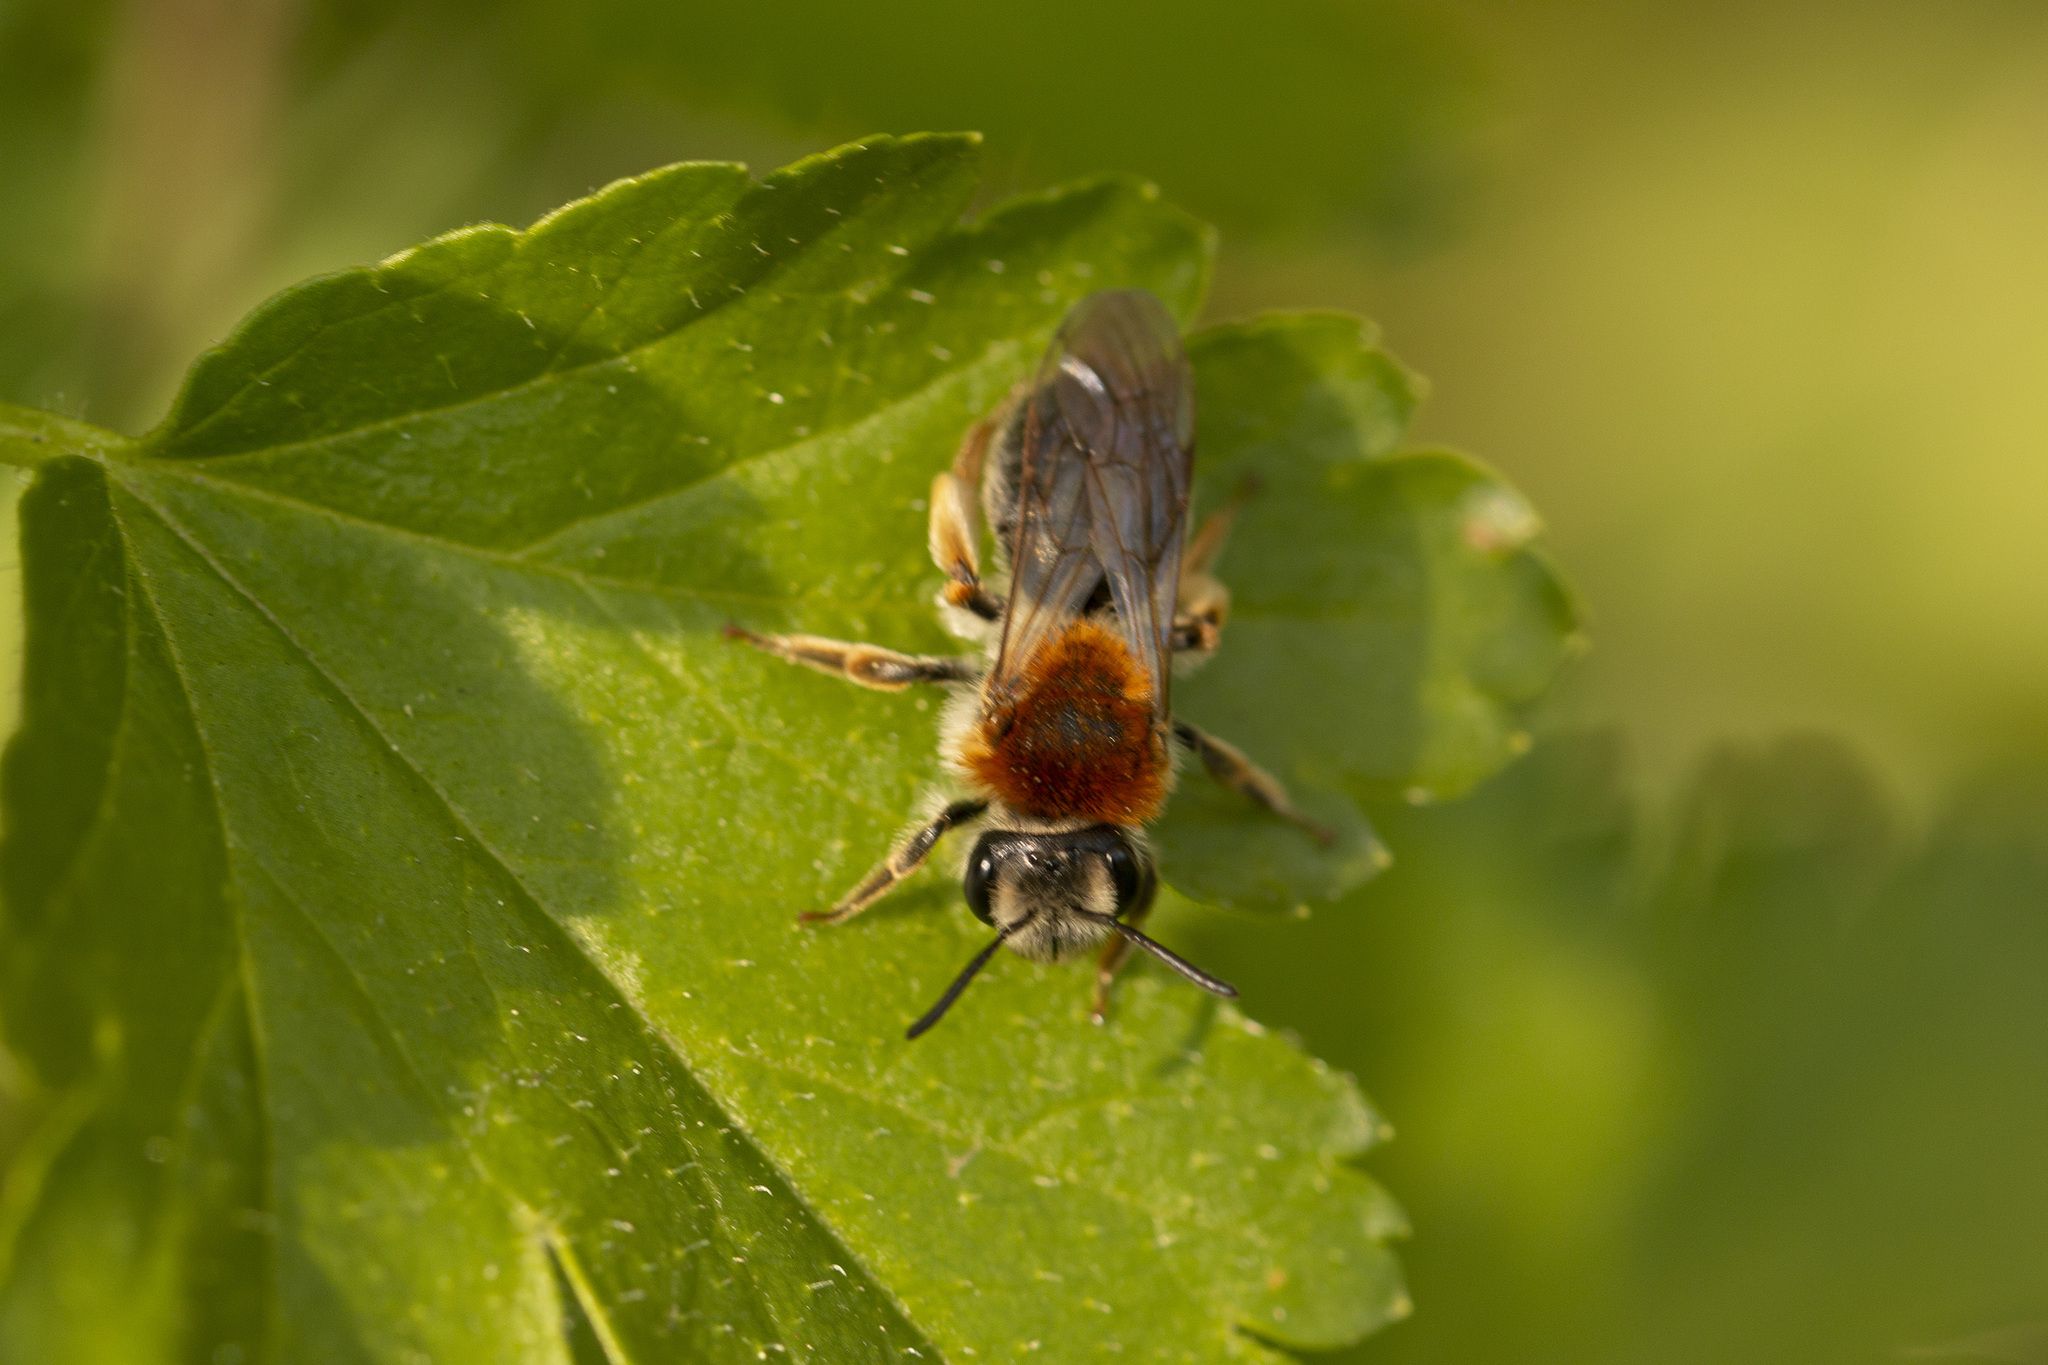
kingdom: Animalia
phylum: Arthropoda
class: Insecta
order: Hymenoptera
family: Andrenidae
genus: Andrena
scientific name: Andrena haemorrhoa
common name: Early mining bee
